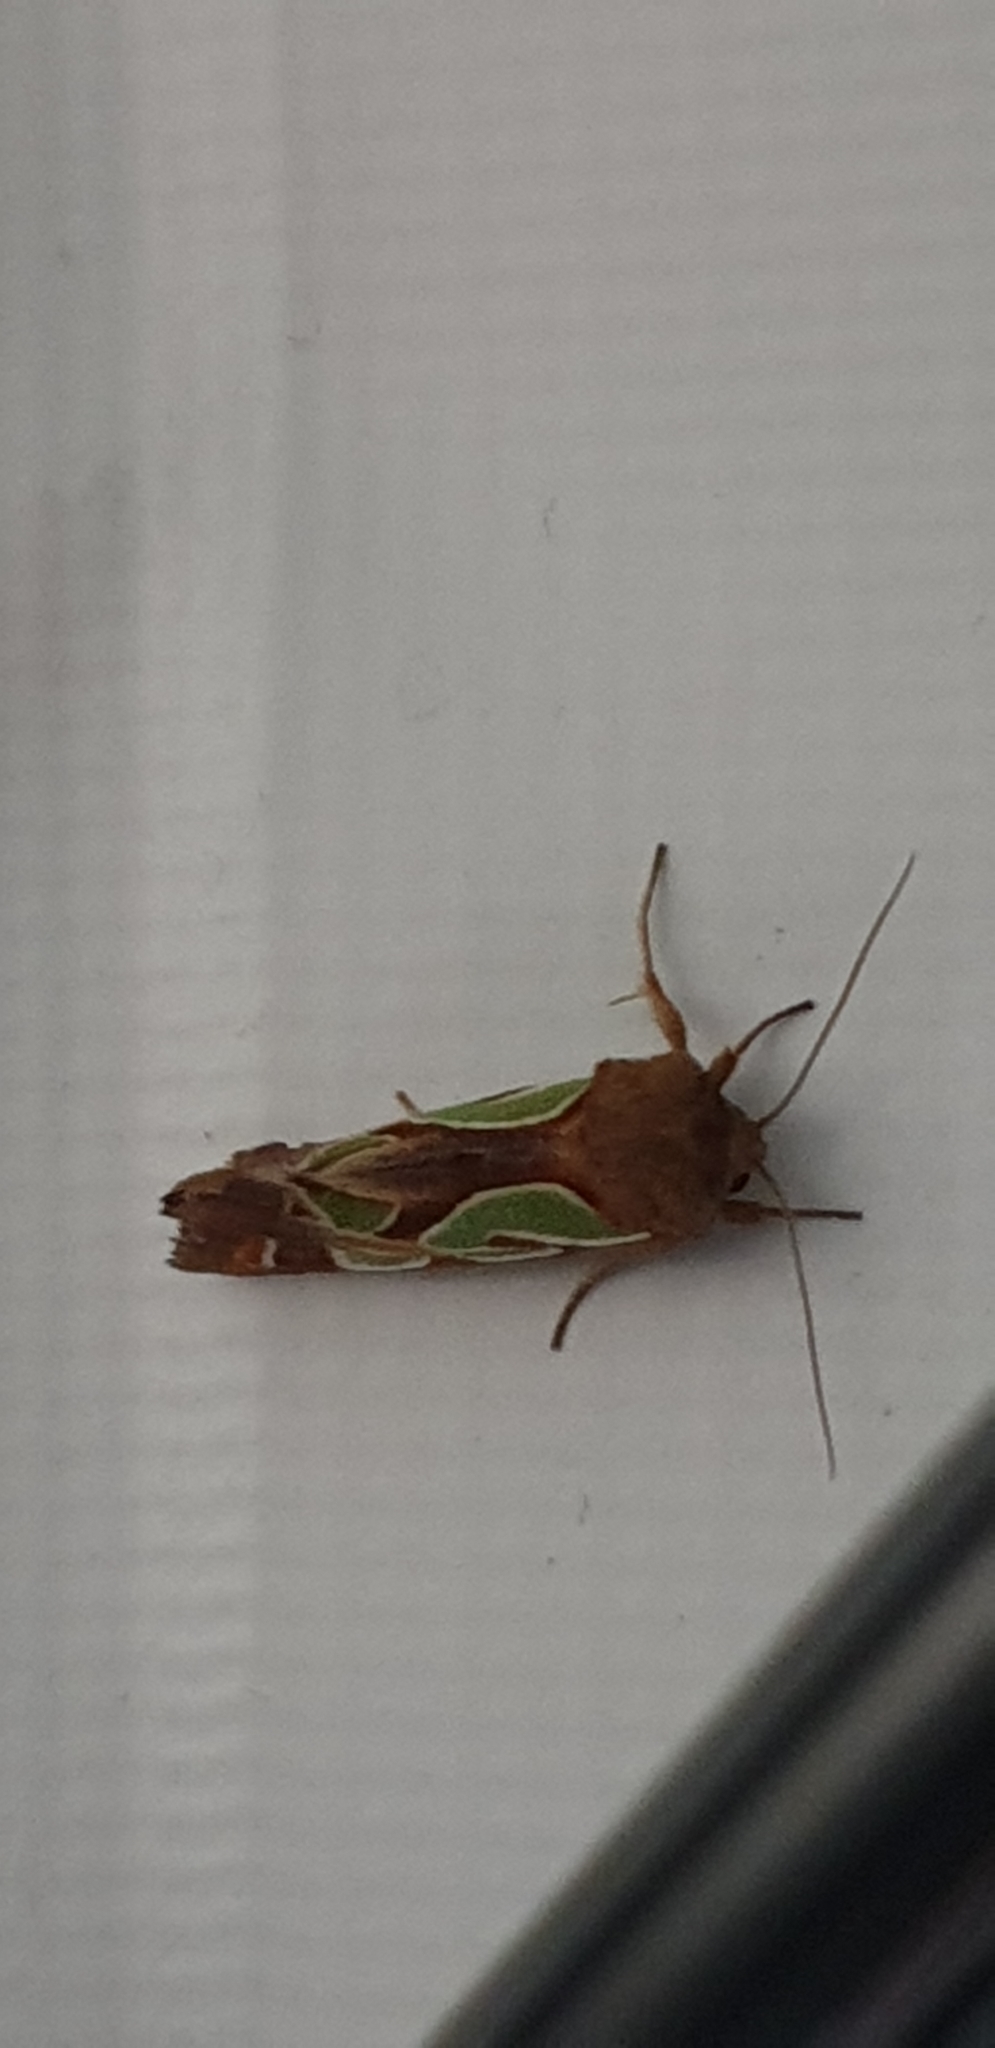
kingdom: Animalia
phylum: Arthropoda
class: Insecta
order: Lepidoptera
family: Noctuidae
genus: Cosmodes
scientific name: Cosmodes elegans
